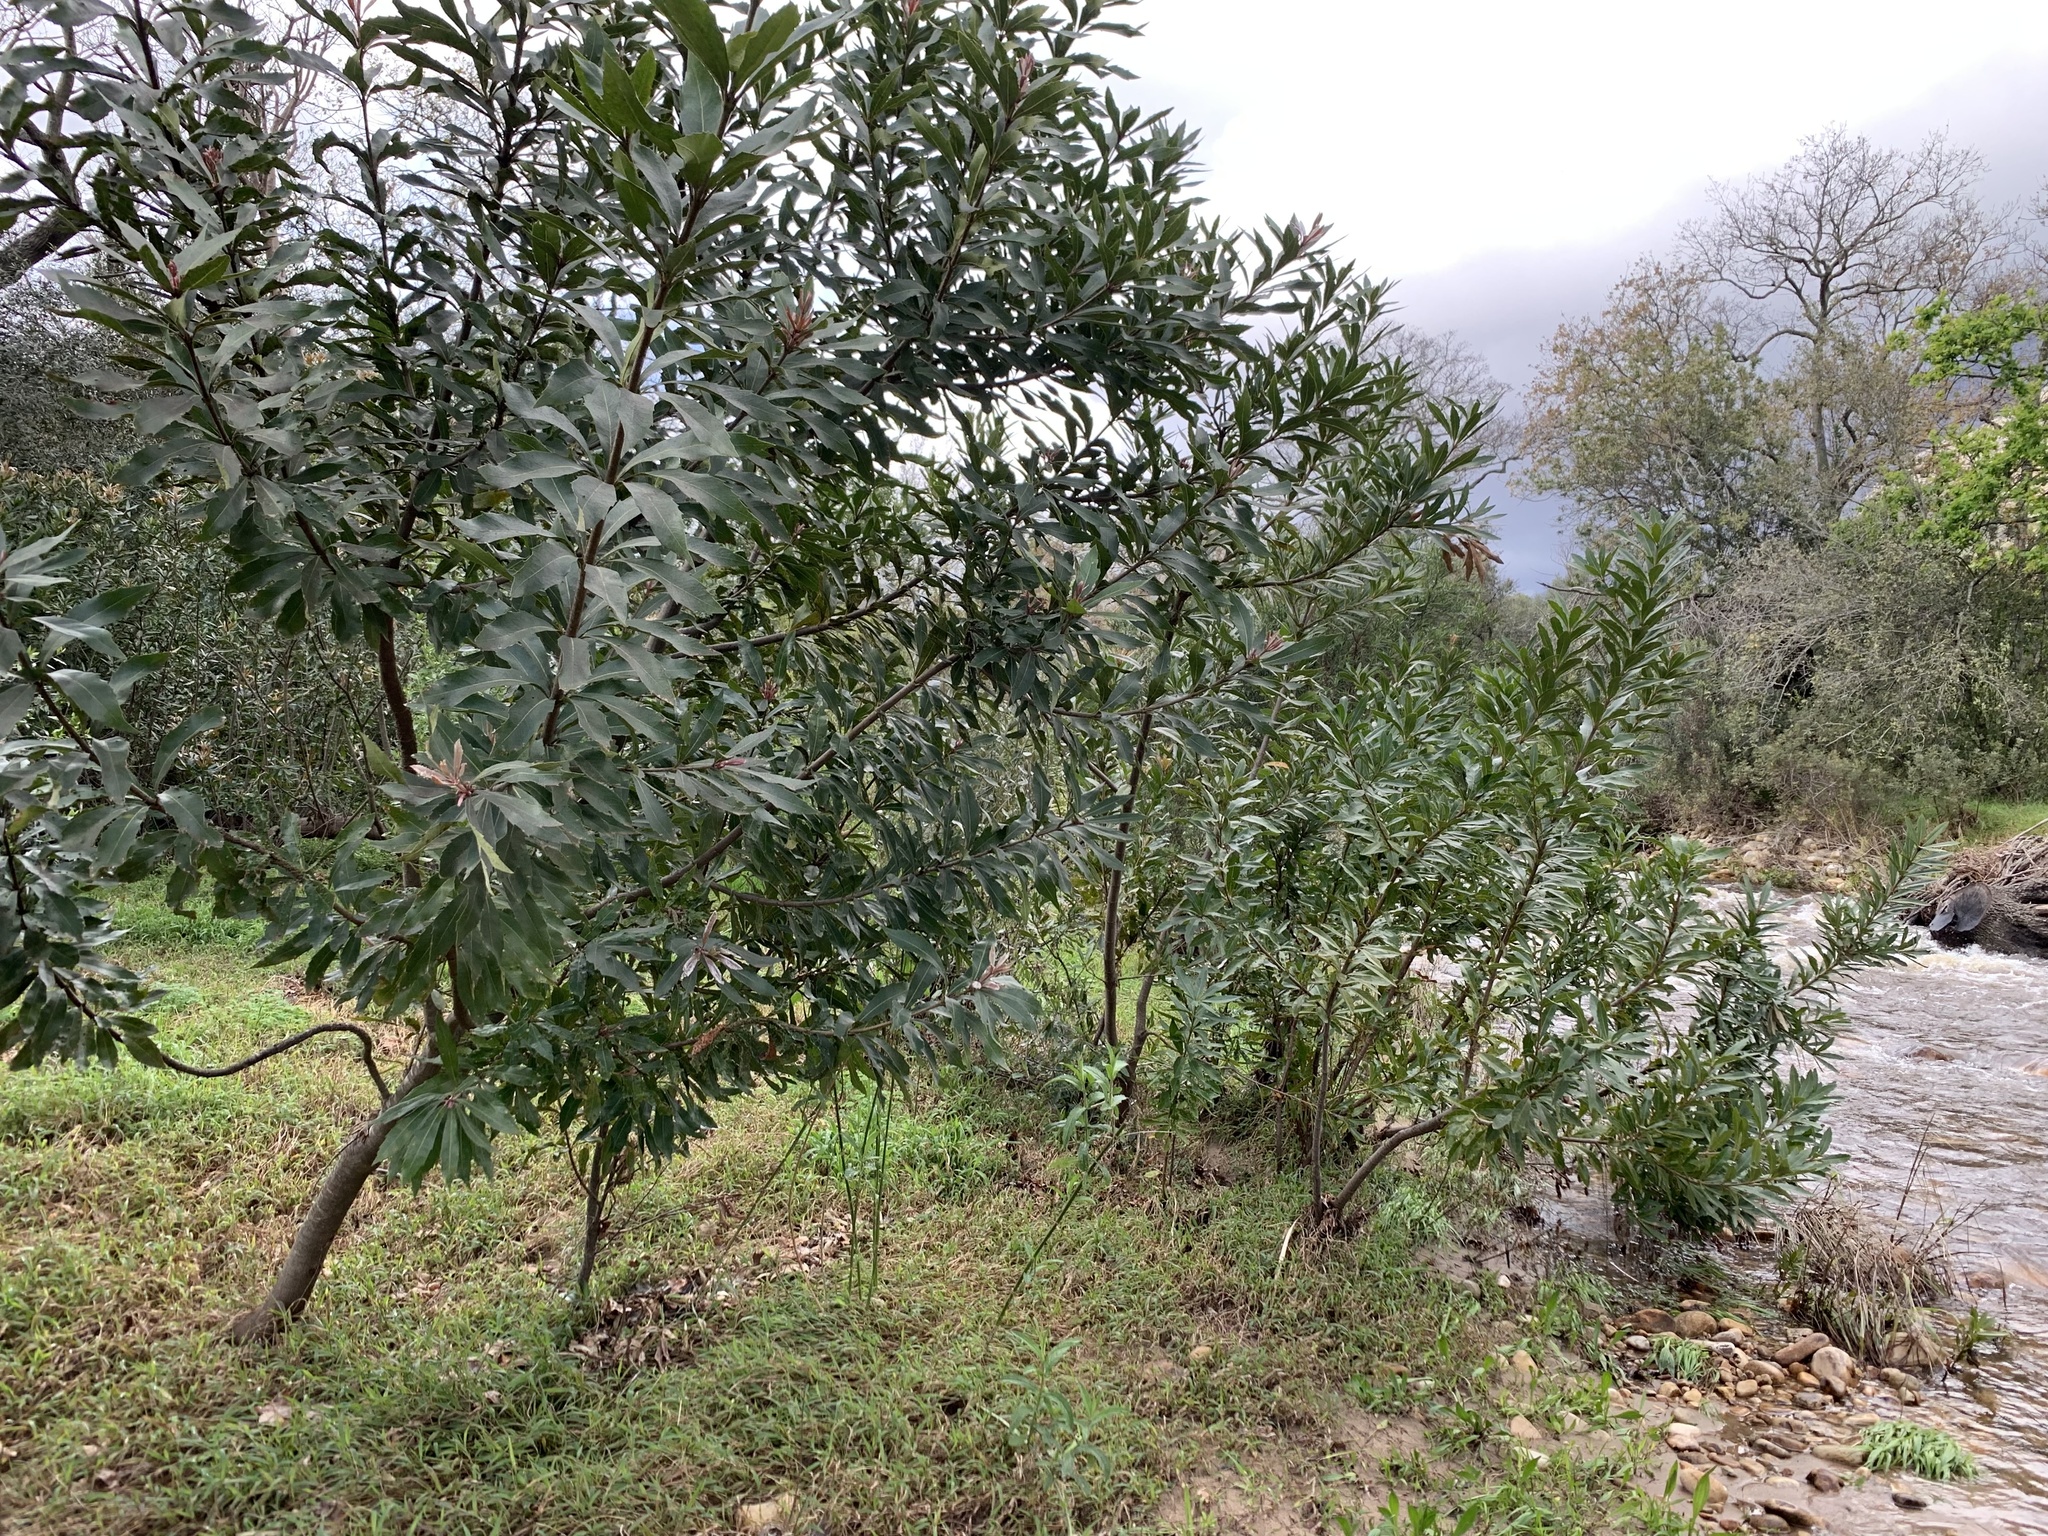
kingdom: Plantae
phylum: Tracheophyta
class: Magnoliopsida
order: Proteales
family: Proteaceae
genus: Brabejum
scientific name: Brabejum stellatifolium
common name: Wild almond
